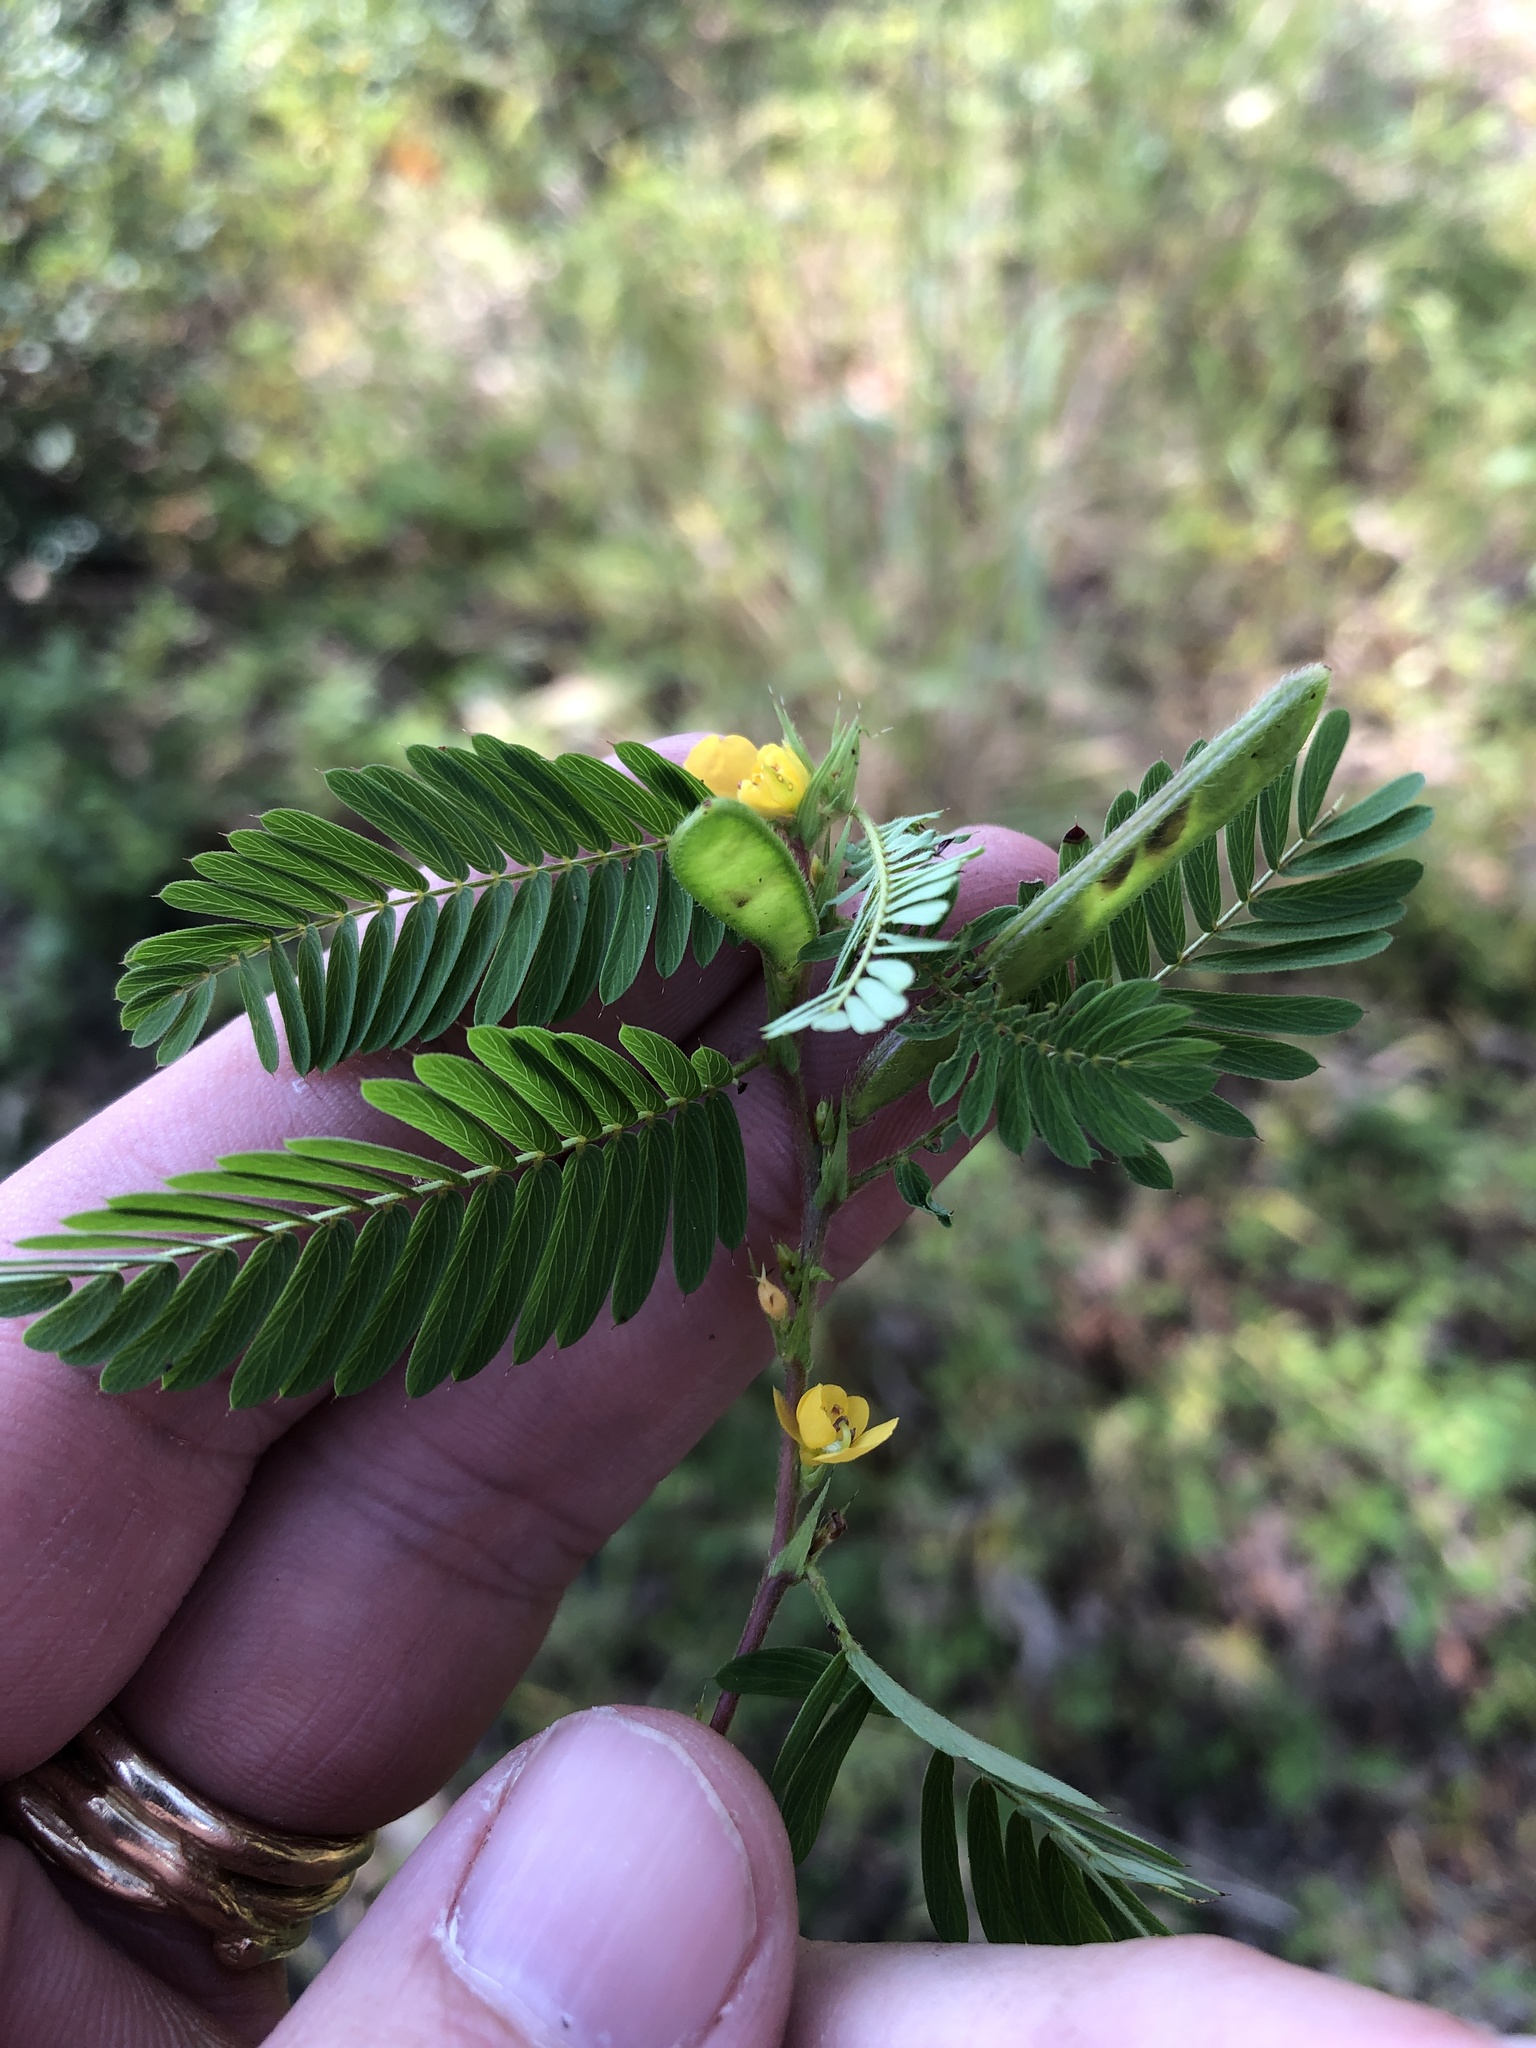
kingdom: Plantae
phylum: Tracheophyta
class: Magnoliopsida
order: Fabales
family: Fabaceae
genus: Chamaecrista
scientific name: Chamaecrista nictitans
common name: Sensitive cassia
